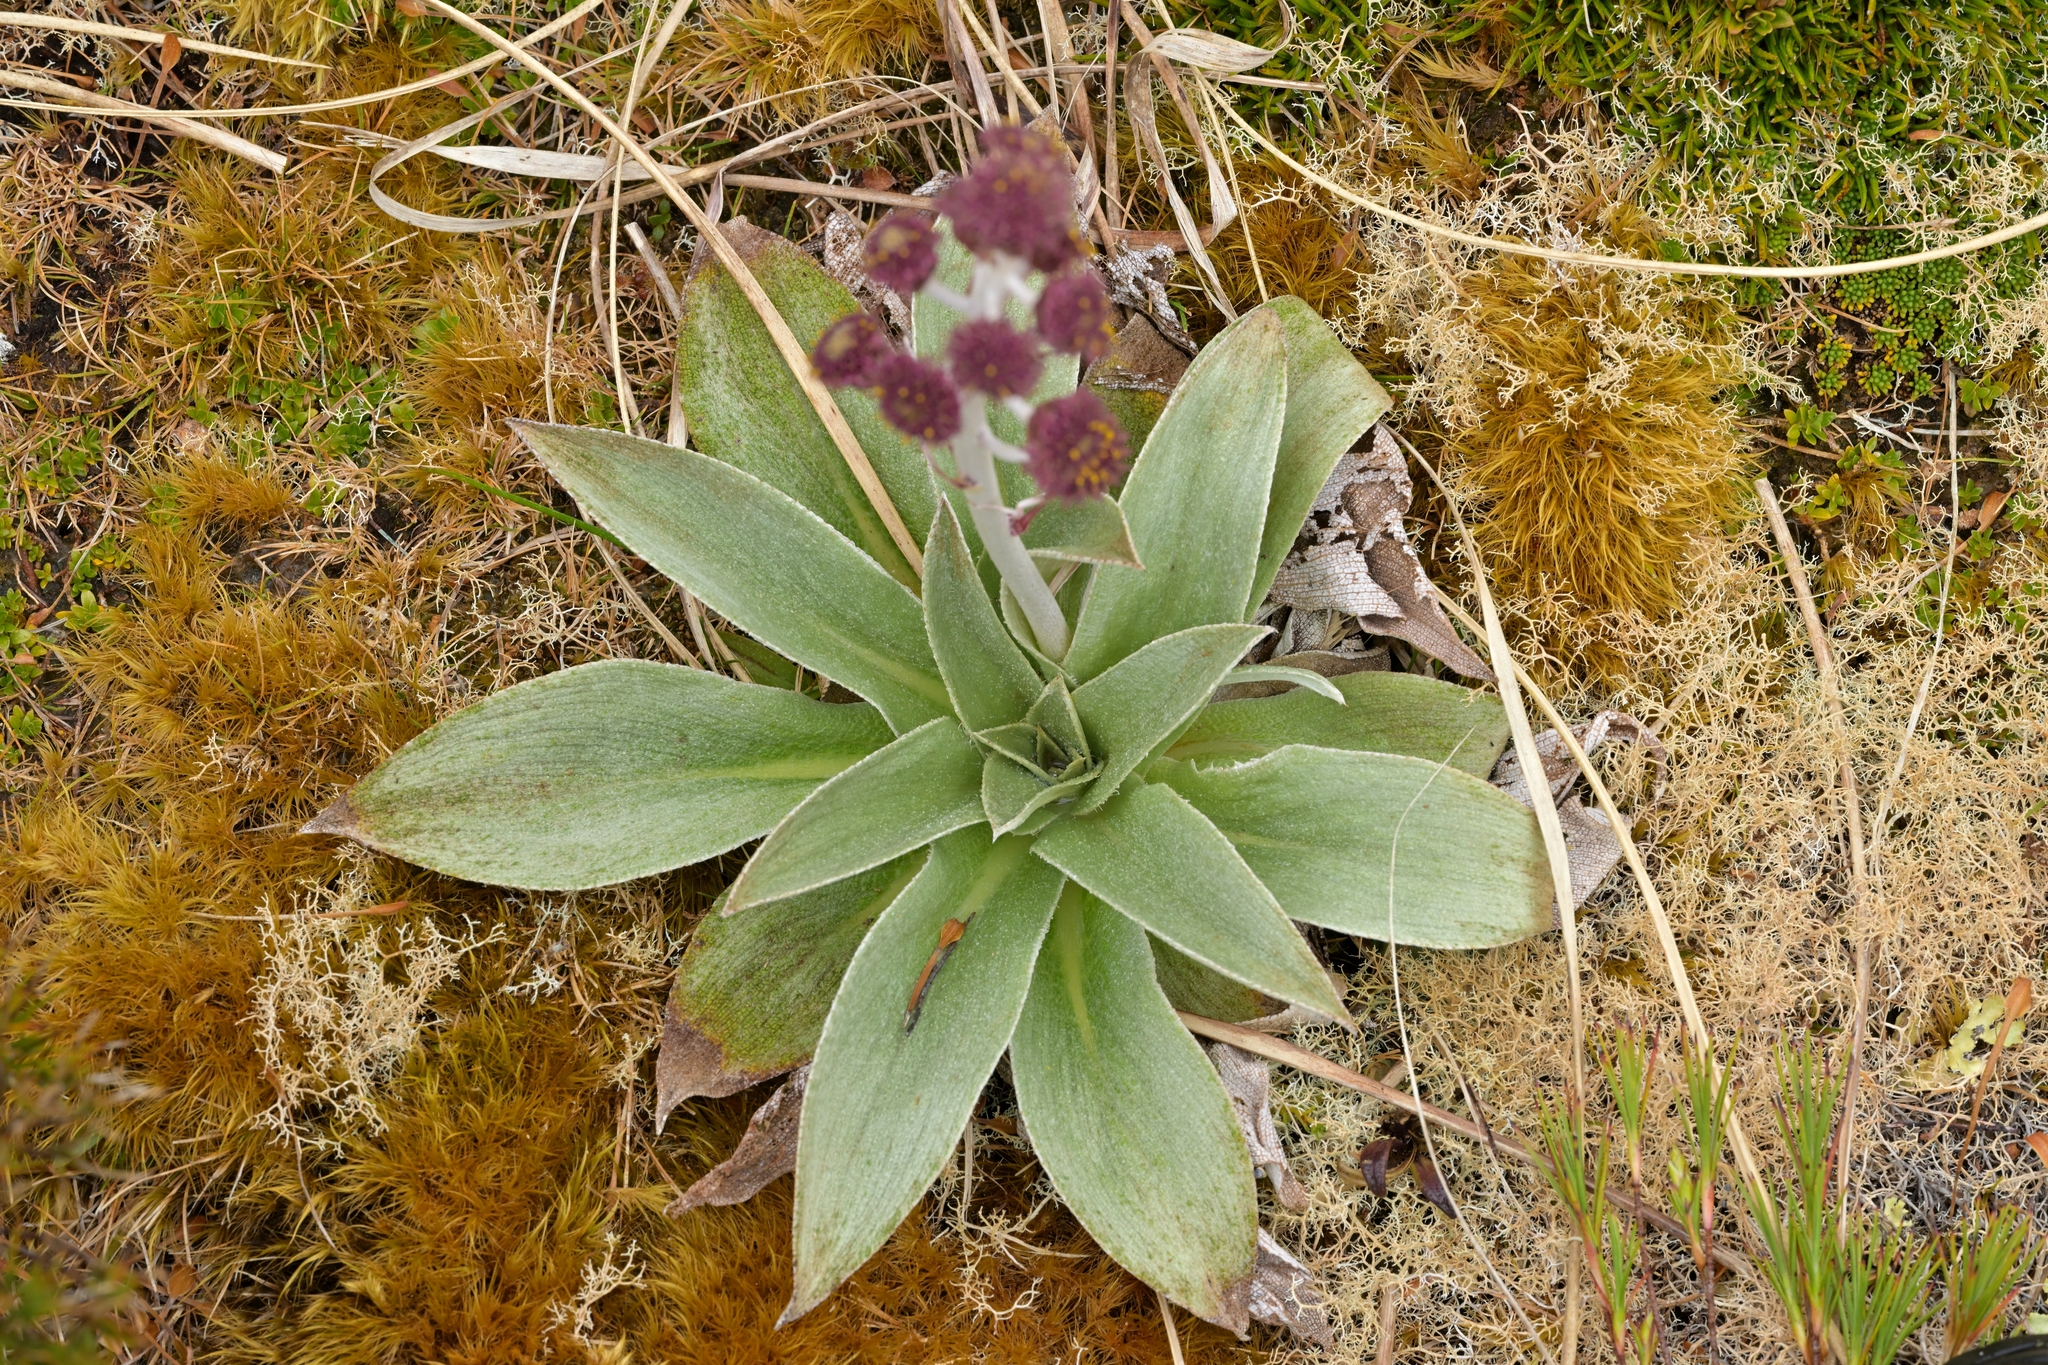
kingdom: Plantae
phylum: Tracheophyta
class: Magnoliopsida
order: Asterales
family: Asteraceae
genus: Pleurophyllum
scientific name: Pleurophyllum hookeri
